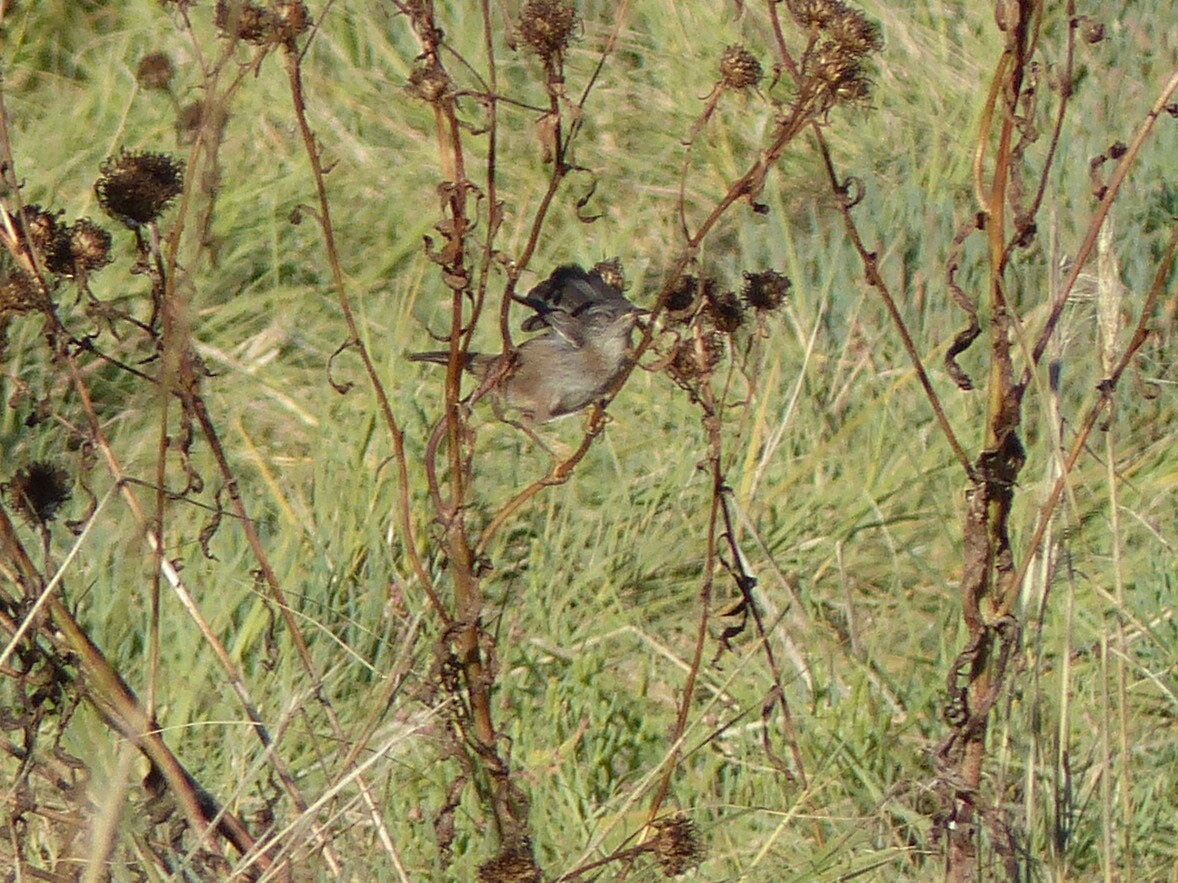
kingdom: Animalia
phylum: Chordata
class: Aves
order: Passeriformes
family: Troglodytidae
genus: Troglodytes
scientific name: Troglodytes aedon
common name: House wren
